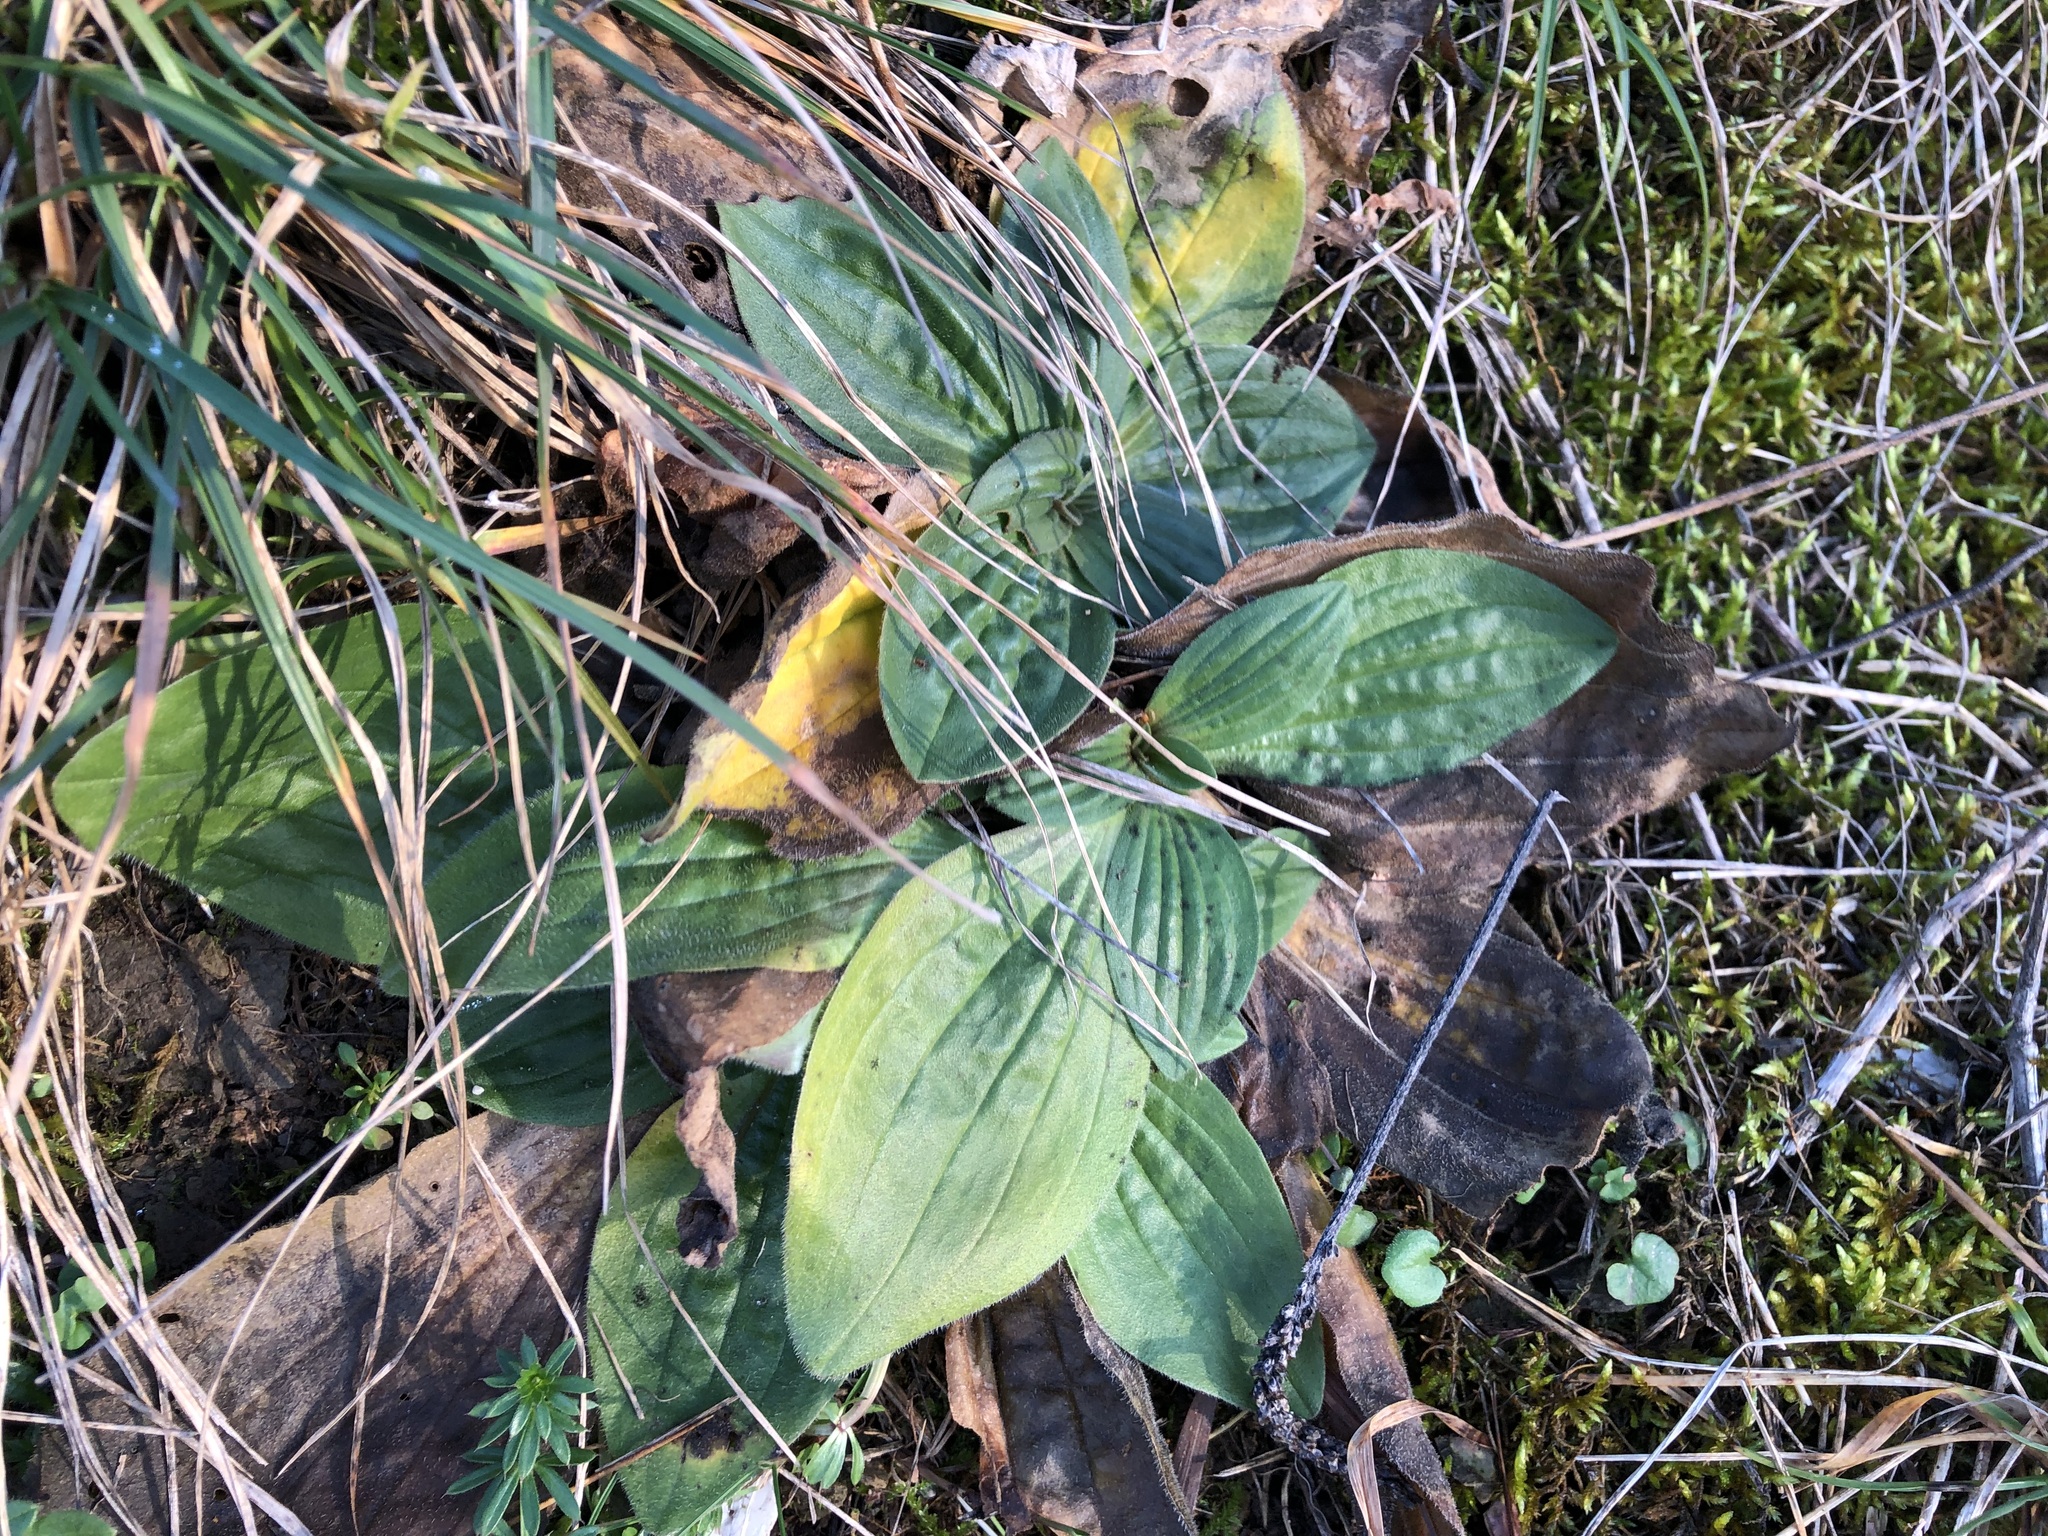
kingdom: Plantae
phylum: Tracheophyta
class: Magnoliopsida
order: Lamiales
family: Plantaginaceae
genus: Plantago
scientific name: Plantago media
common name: Hoary plantain
